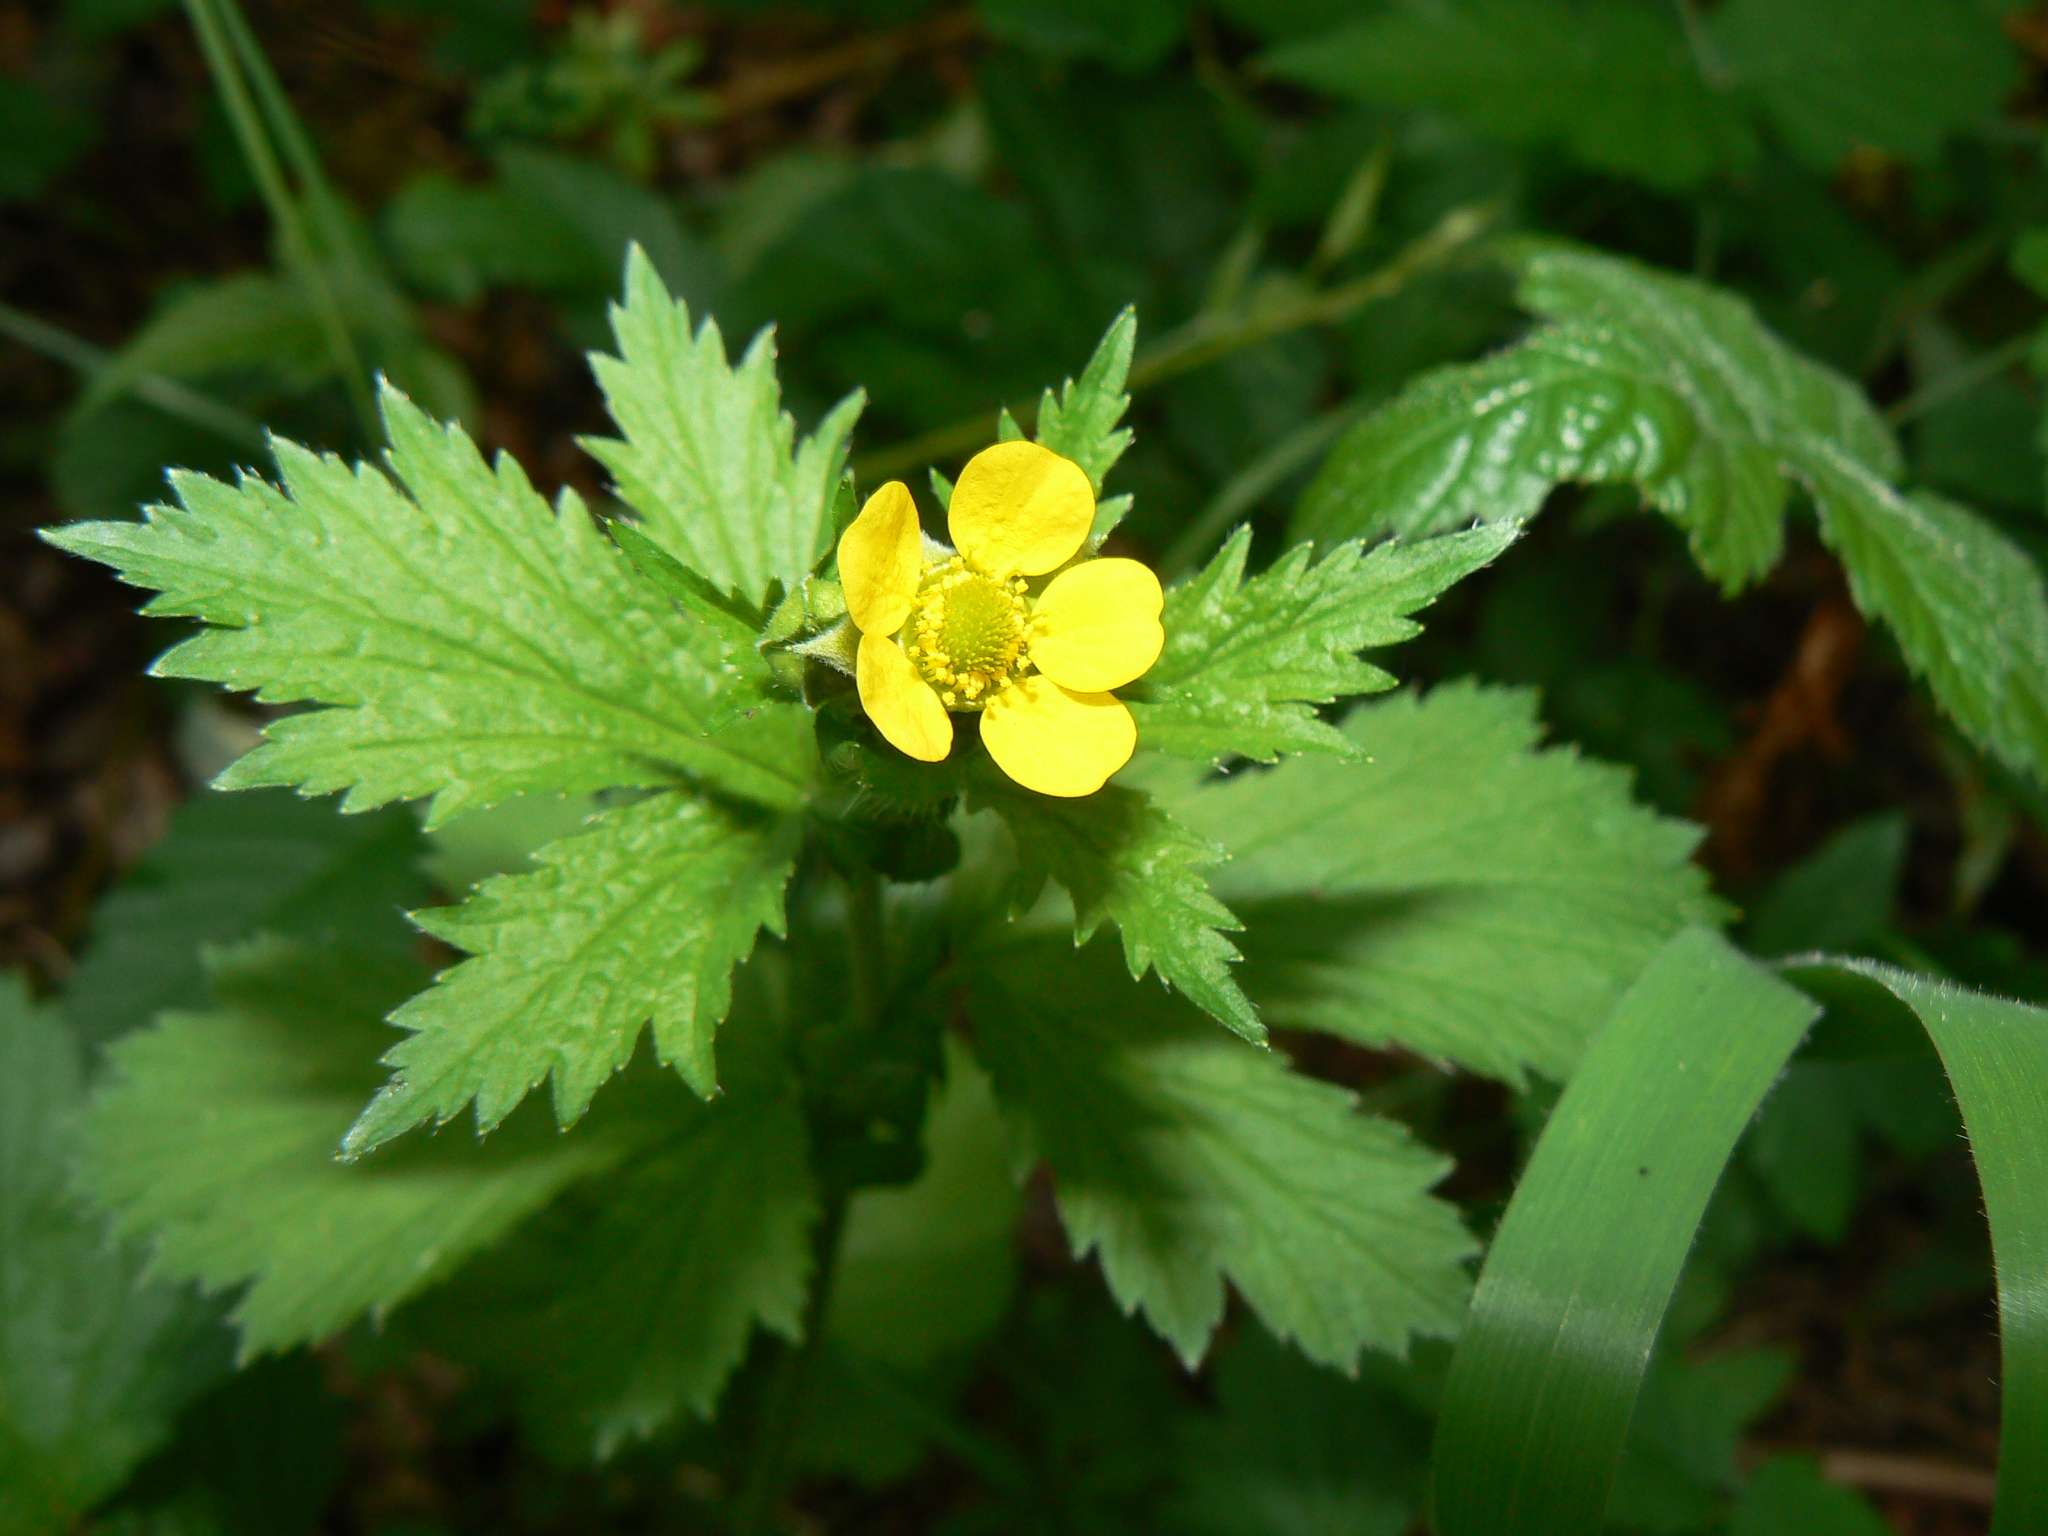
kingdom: Plantae
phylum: Tracheophyta
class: Magnoliopsida
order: Rosales
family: Rosaceae
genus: Geum
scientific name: Geum macrophyllum
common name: Large-leaved avens
